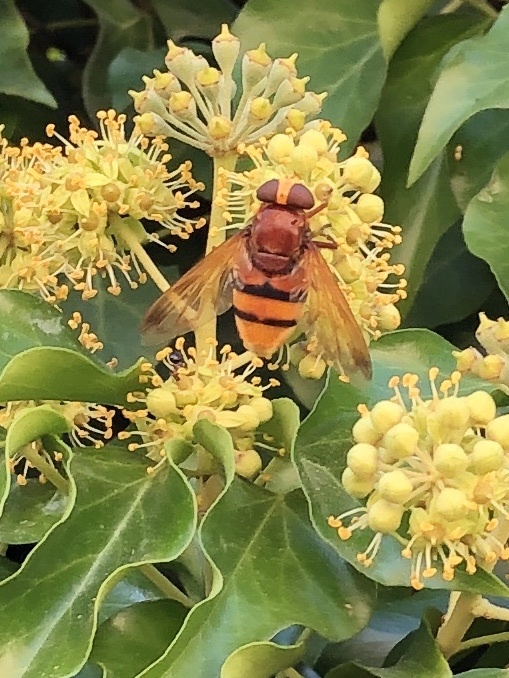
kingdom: Animalia
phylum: Arthropoda
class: Insecta
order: Diptera
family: Syrphidae
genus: Volucella
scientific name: Volucella zonaria
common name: Hornet hoverfly
